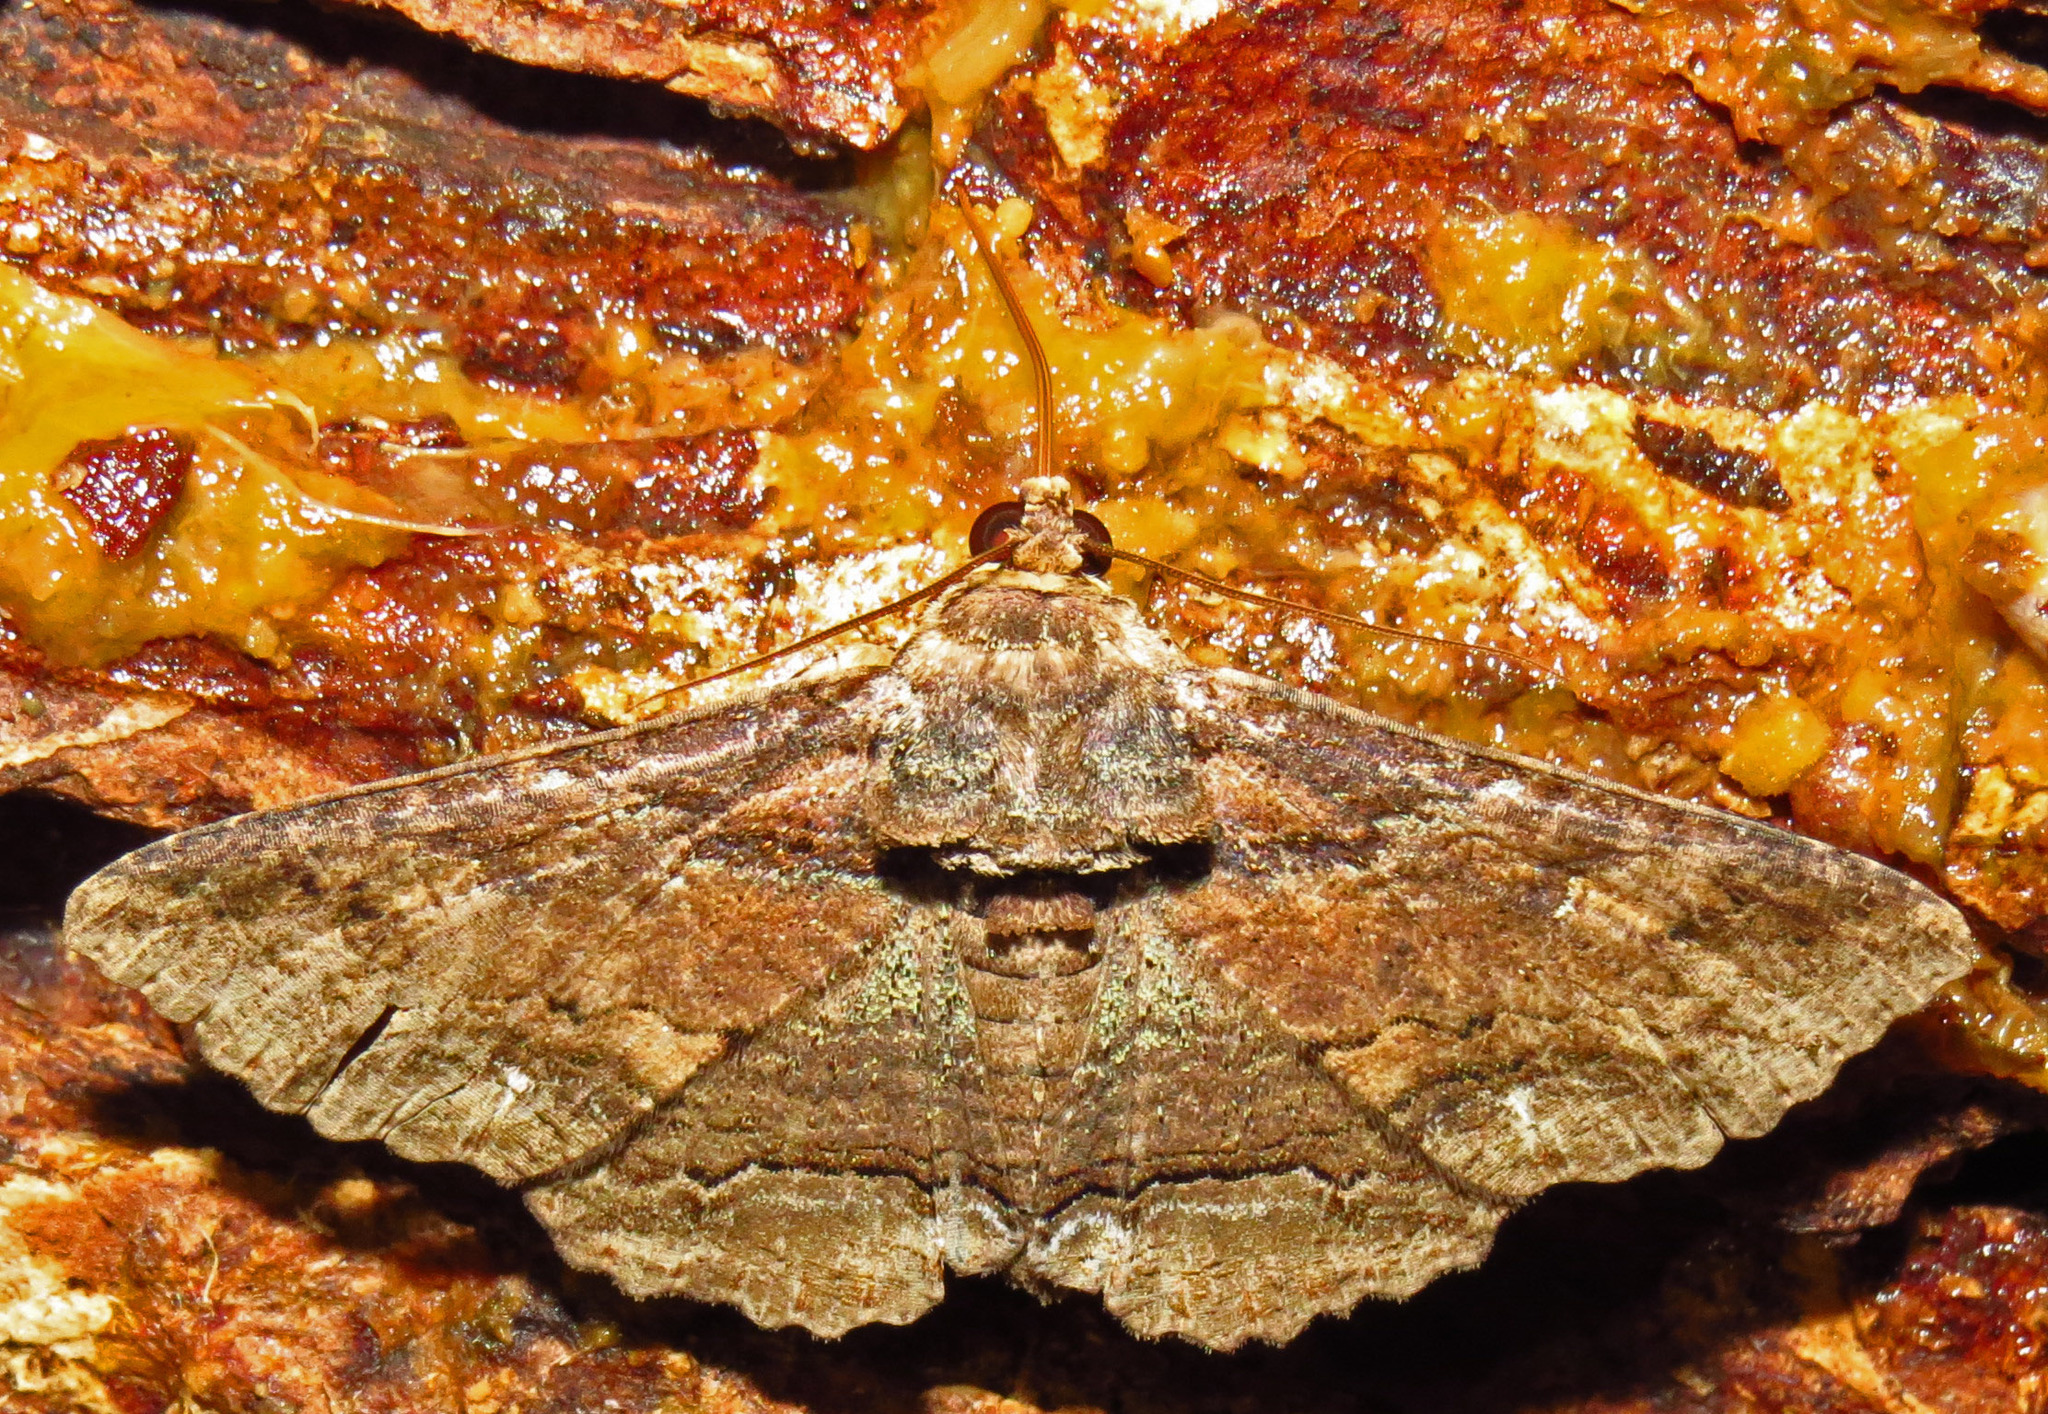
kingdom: Animalia
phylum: Arthropoda
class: Insecta
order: Lepidoptera
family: Erebidae
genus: Zale
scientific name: Zale lunata
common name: Lunate zale moth
